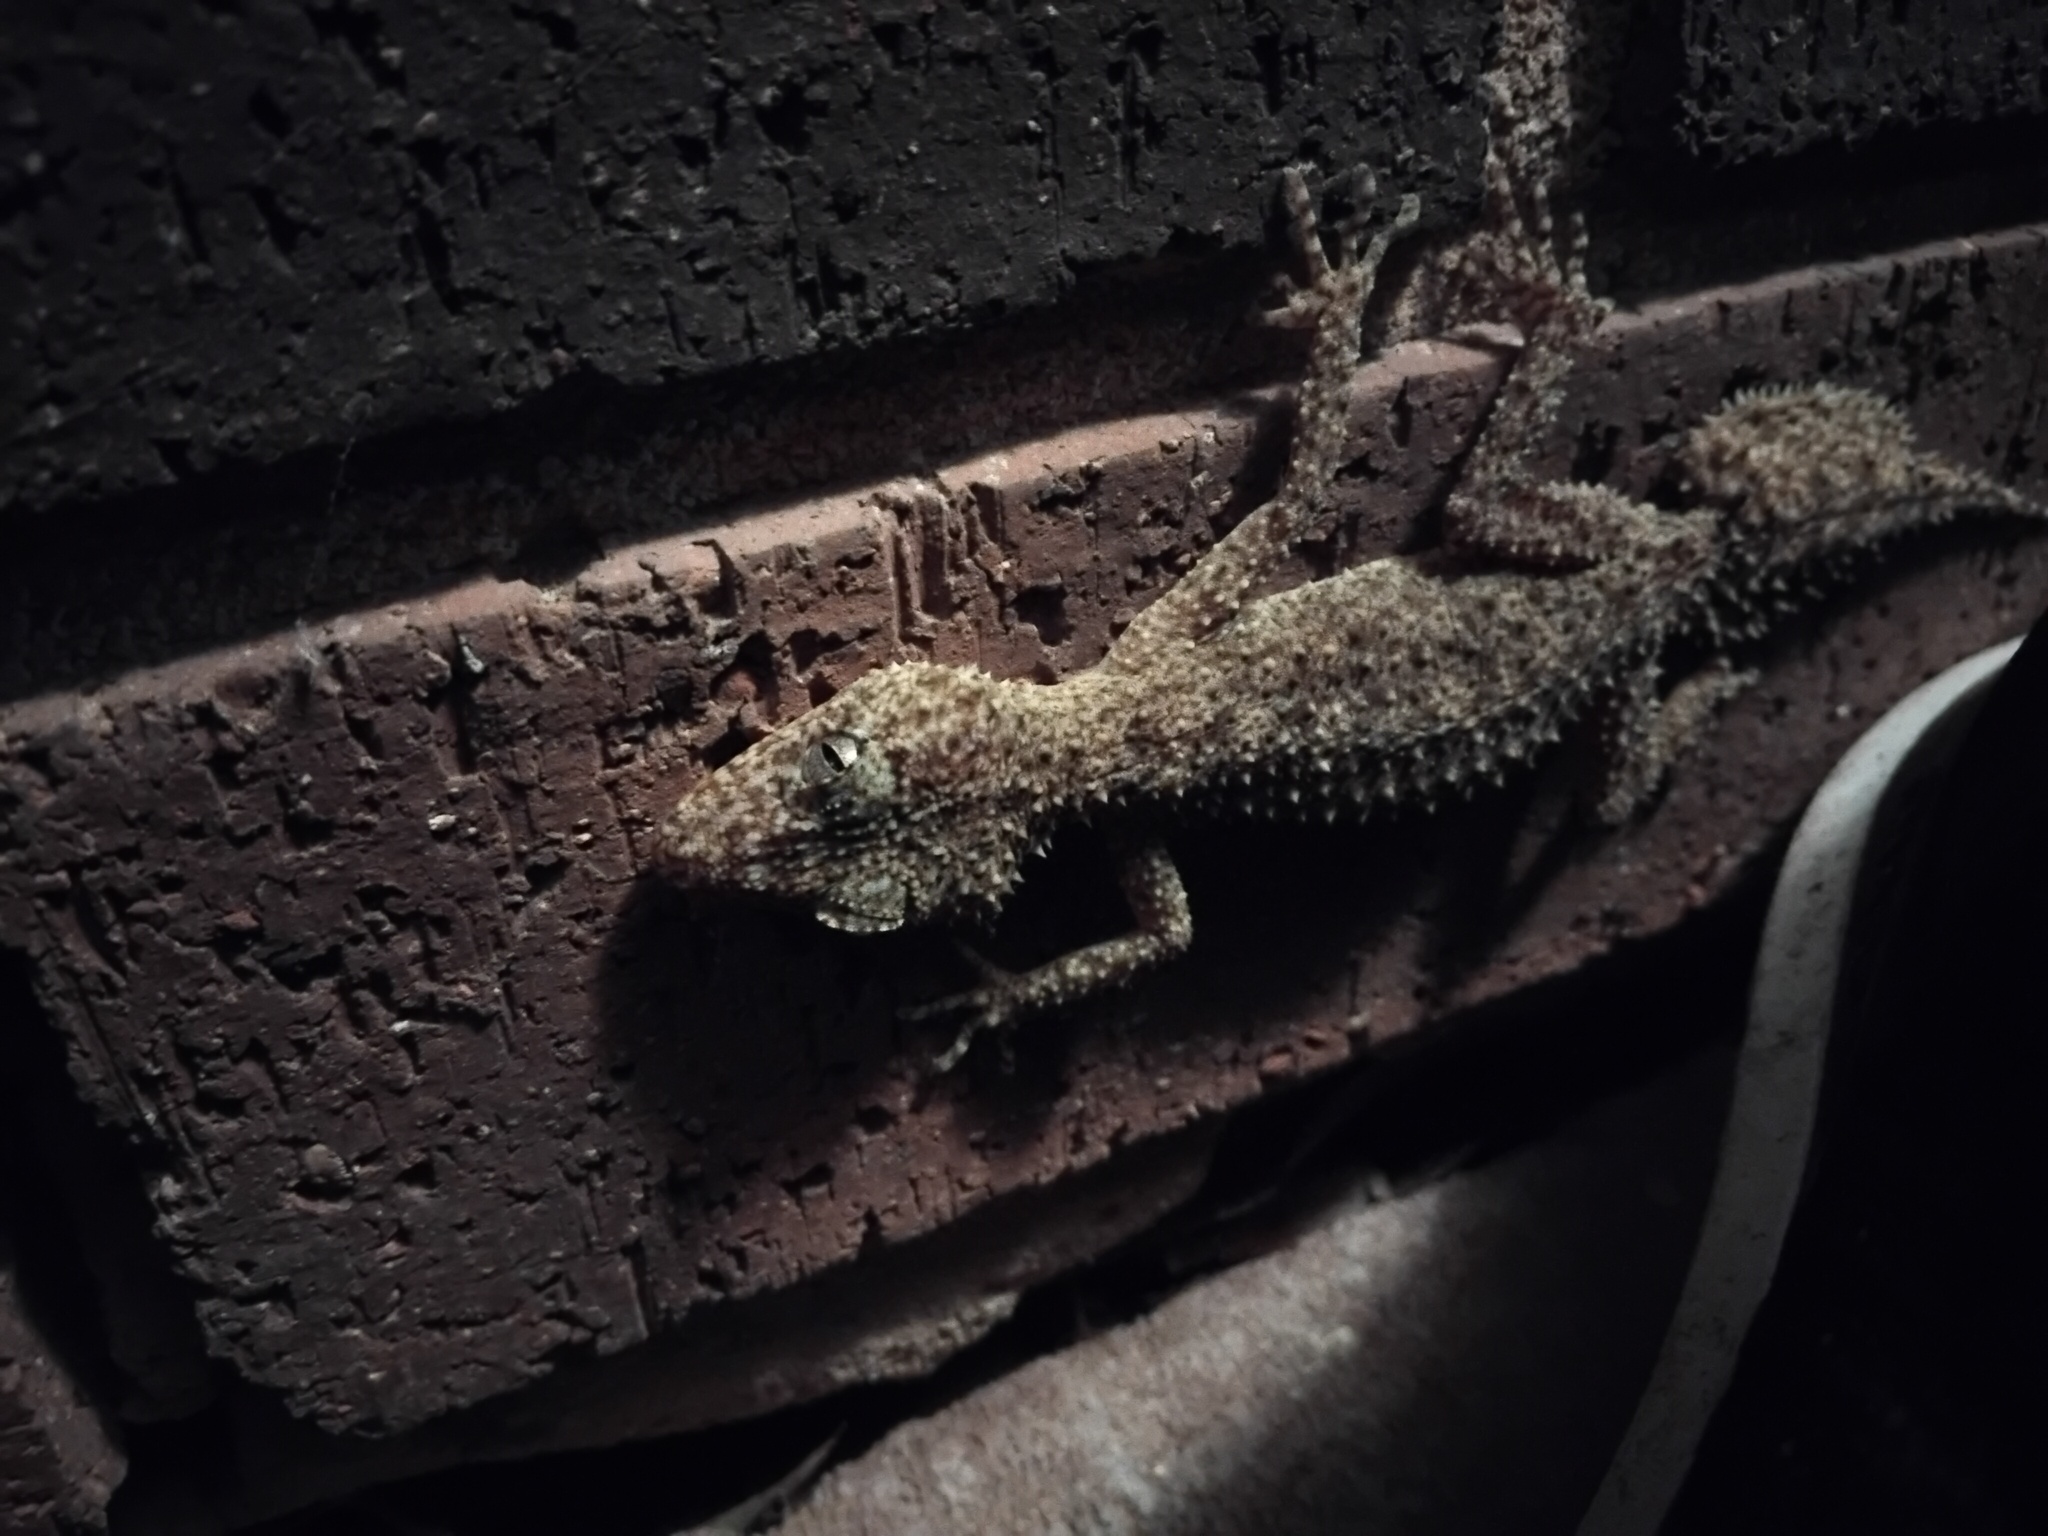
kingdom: Animalia
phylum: Chordata
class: Squamata
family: Carphodactylidae
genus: Phyllurus
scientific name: Phyllurus platurus
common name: Broad-tailed gecko
